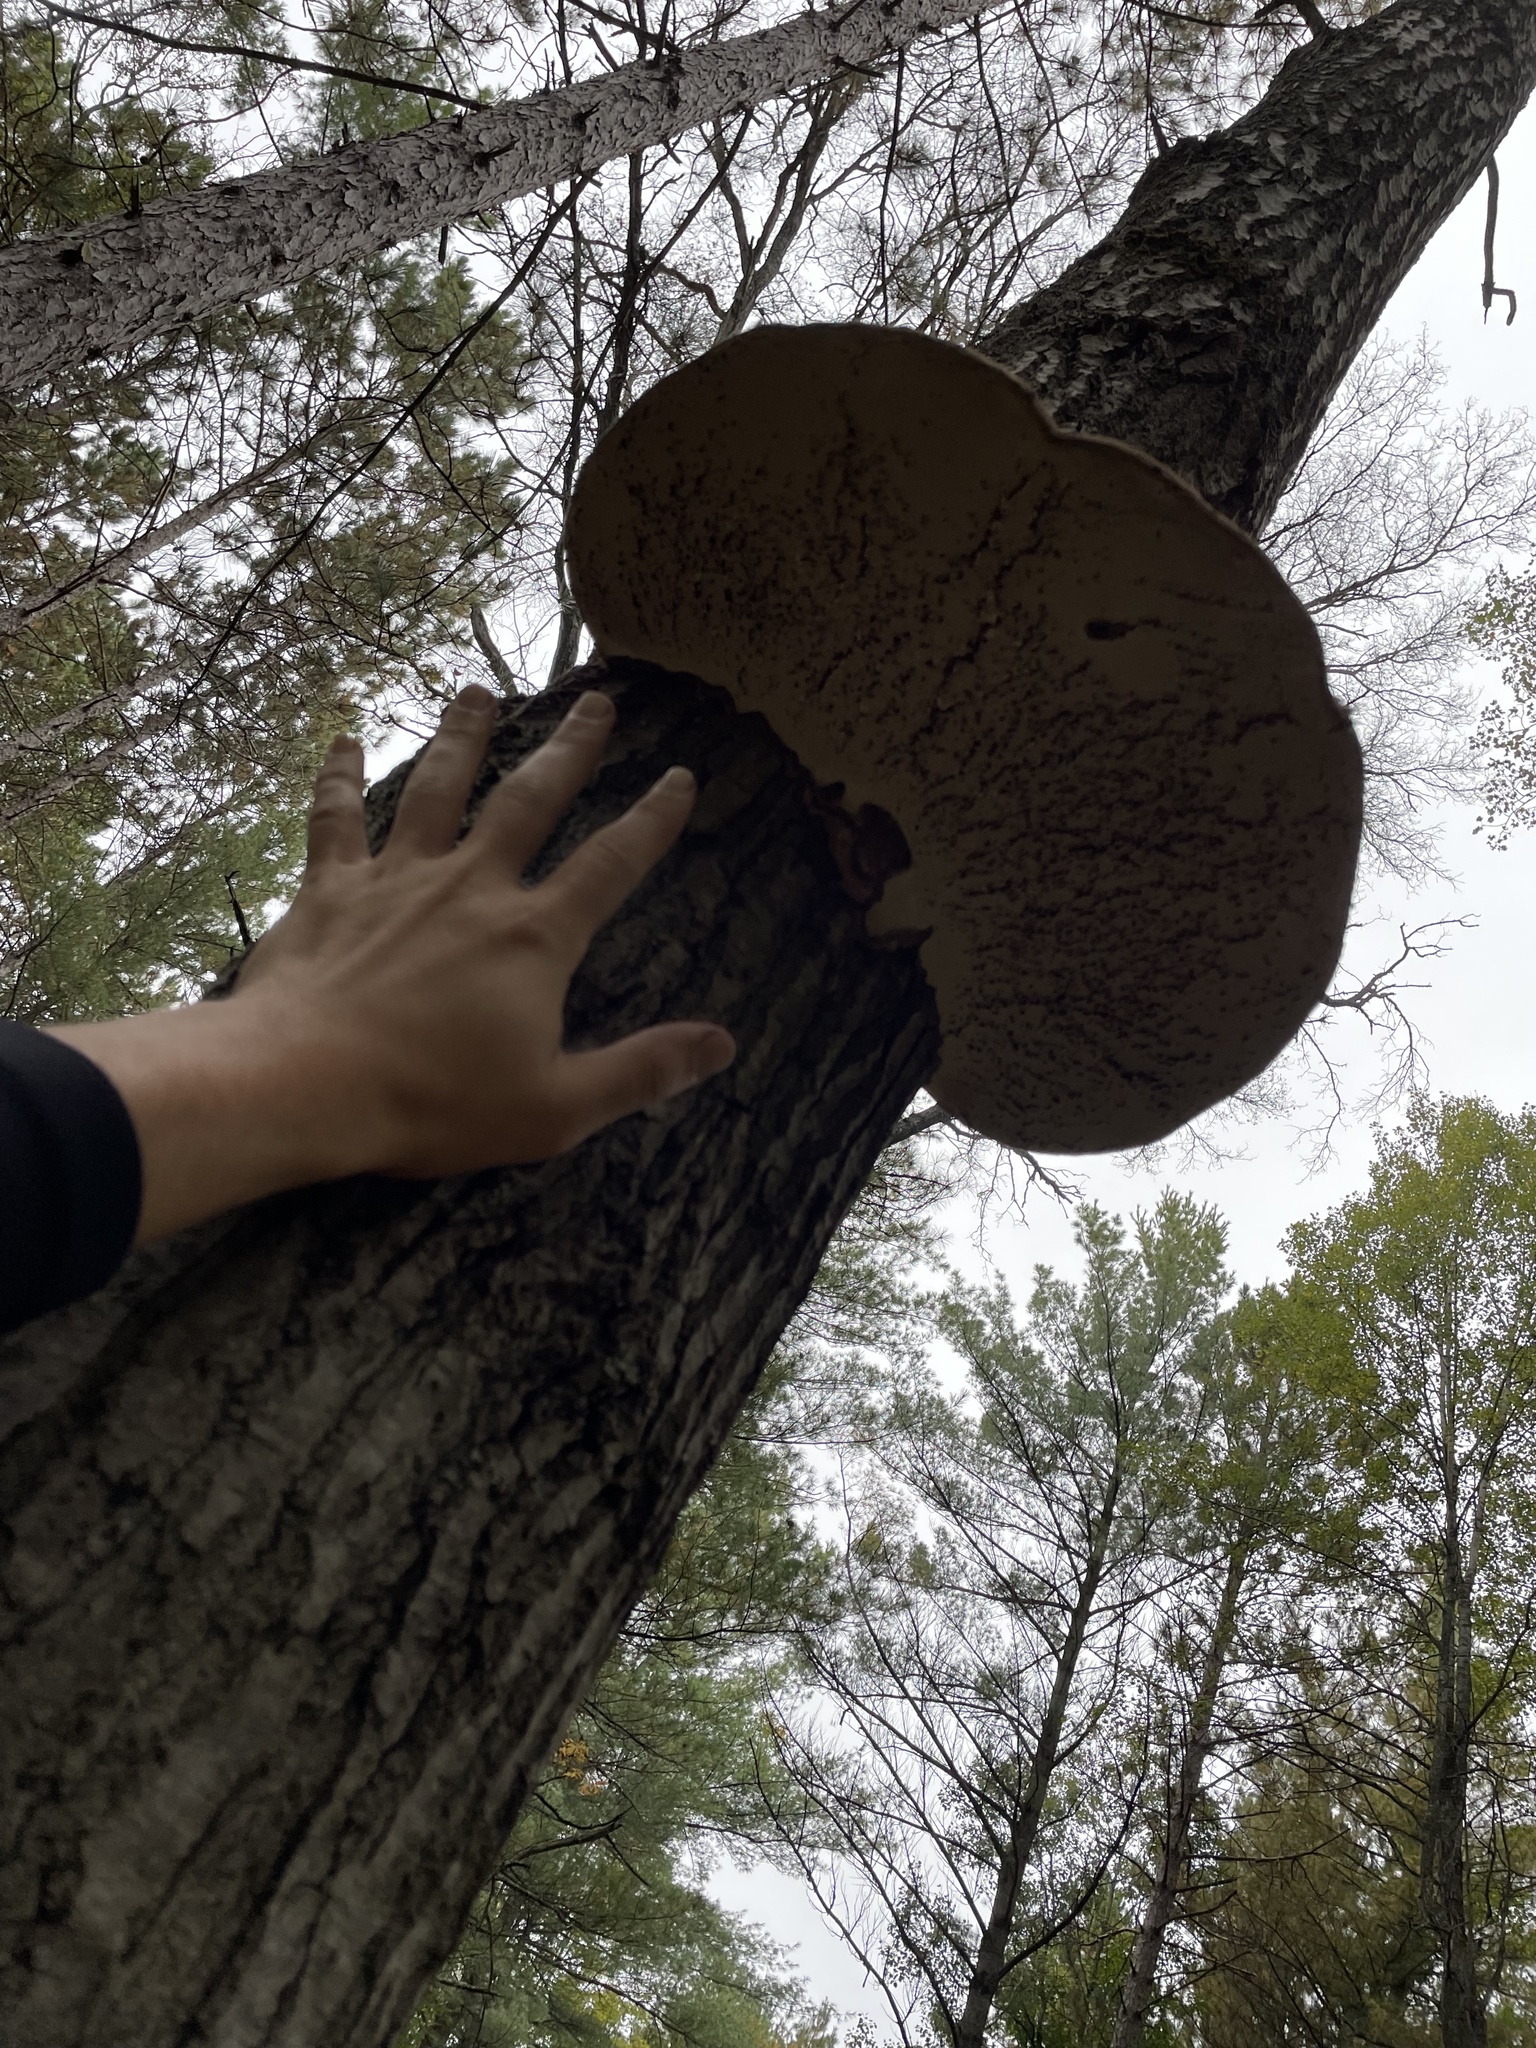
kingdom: Fungi
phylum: Basidiomycota
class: Agaricomycetes
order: Polyporales
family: Polyporaceae
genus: Ganoderma
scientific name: Ganoderma applanatum
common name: Artist's bracket
